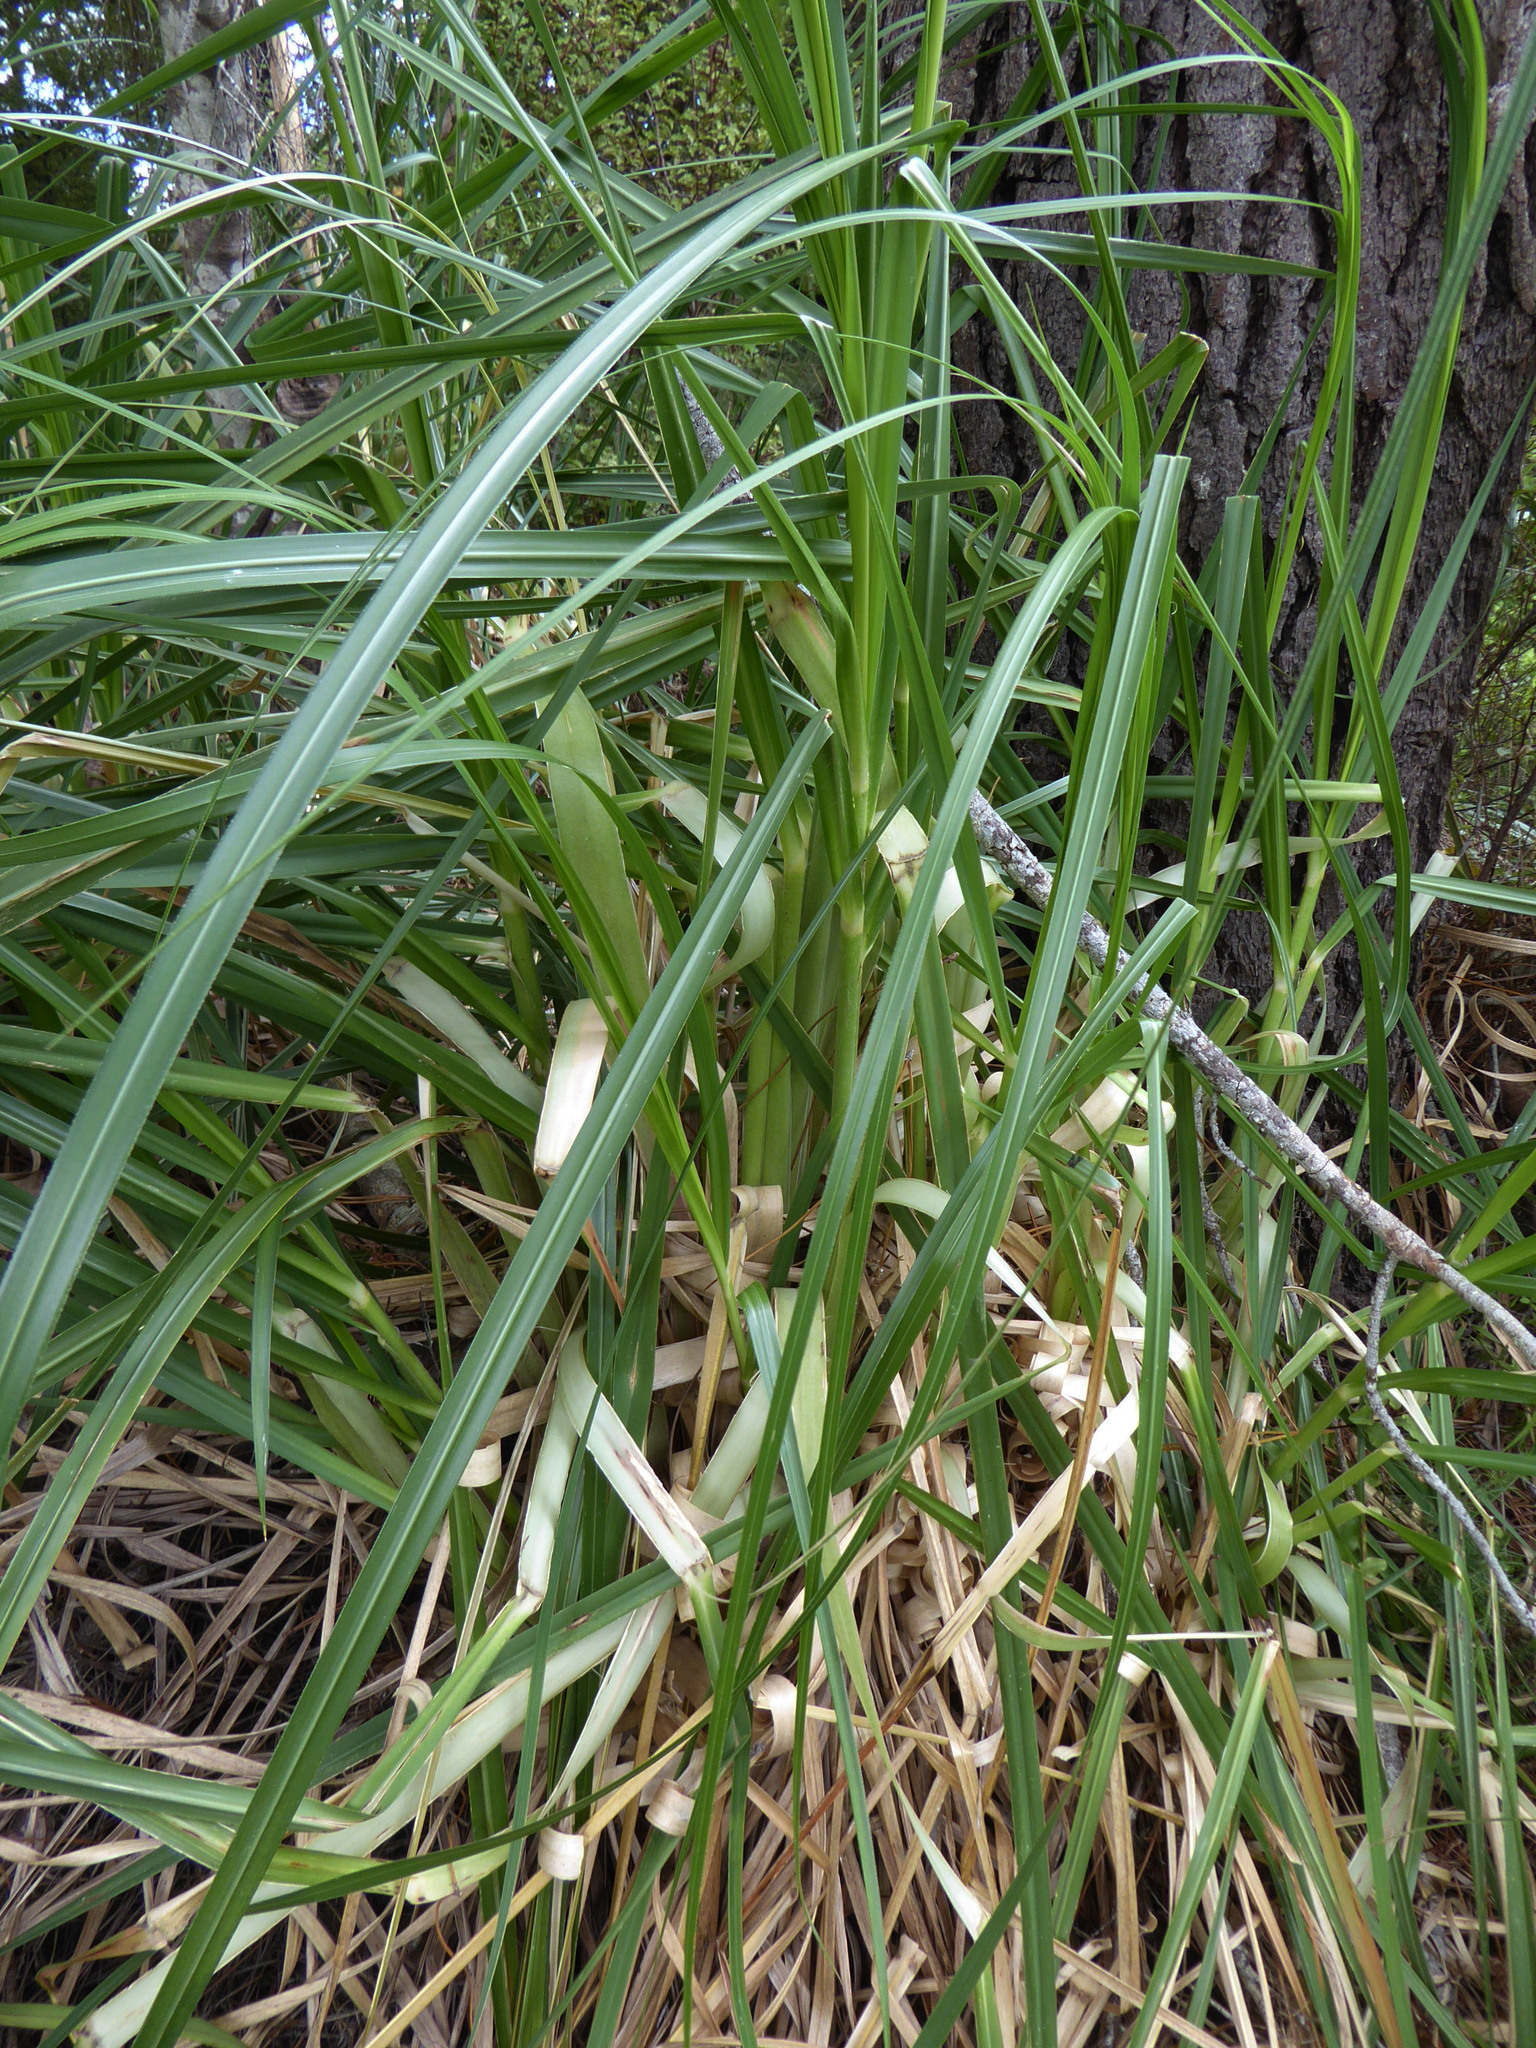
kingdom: Plantae
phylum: Tracheophyta
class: Liliopsida
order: Poales
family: Poaceae
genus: Cortaderia
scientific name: Cortaderia jubata
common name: Purple pampas grass
